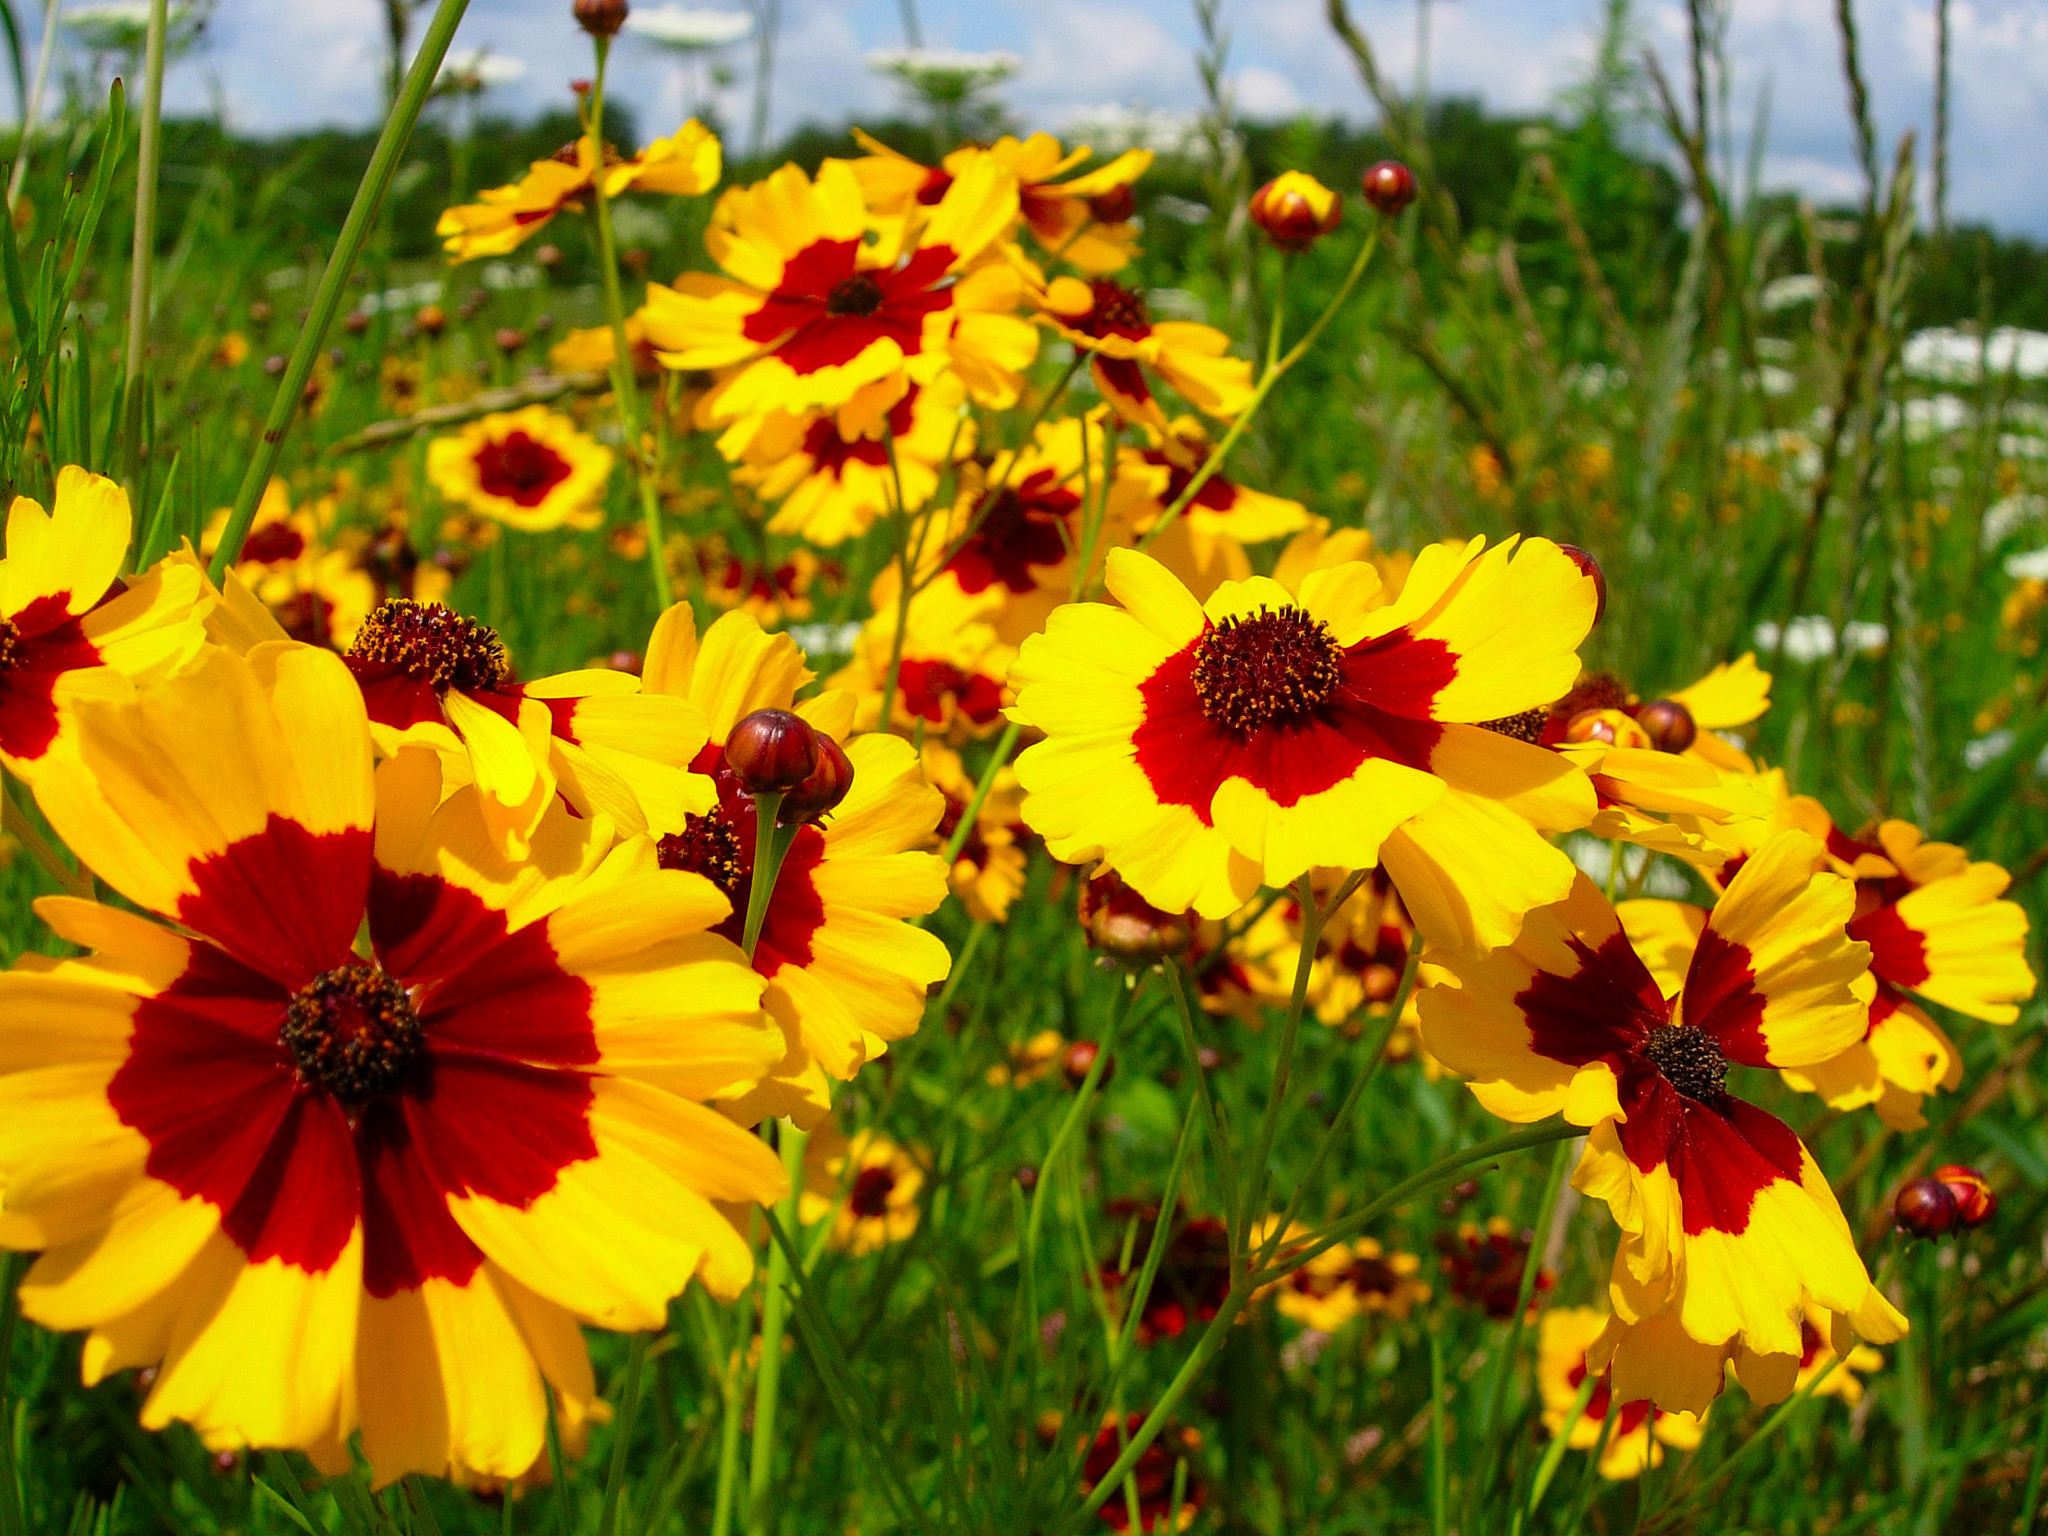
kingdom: Plantae
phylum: Tracheophyta
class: Magnoliopsida
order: Asterales
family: Asteraceae
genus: Coreopsis
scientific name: Coreopsis tinctoria
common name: Garden tickseed
